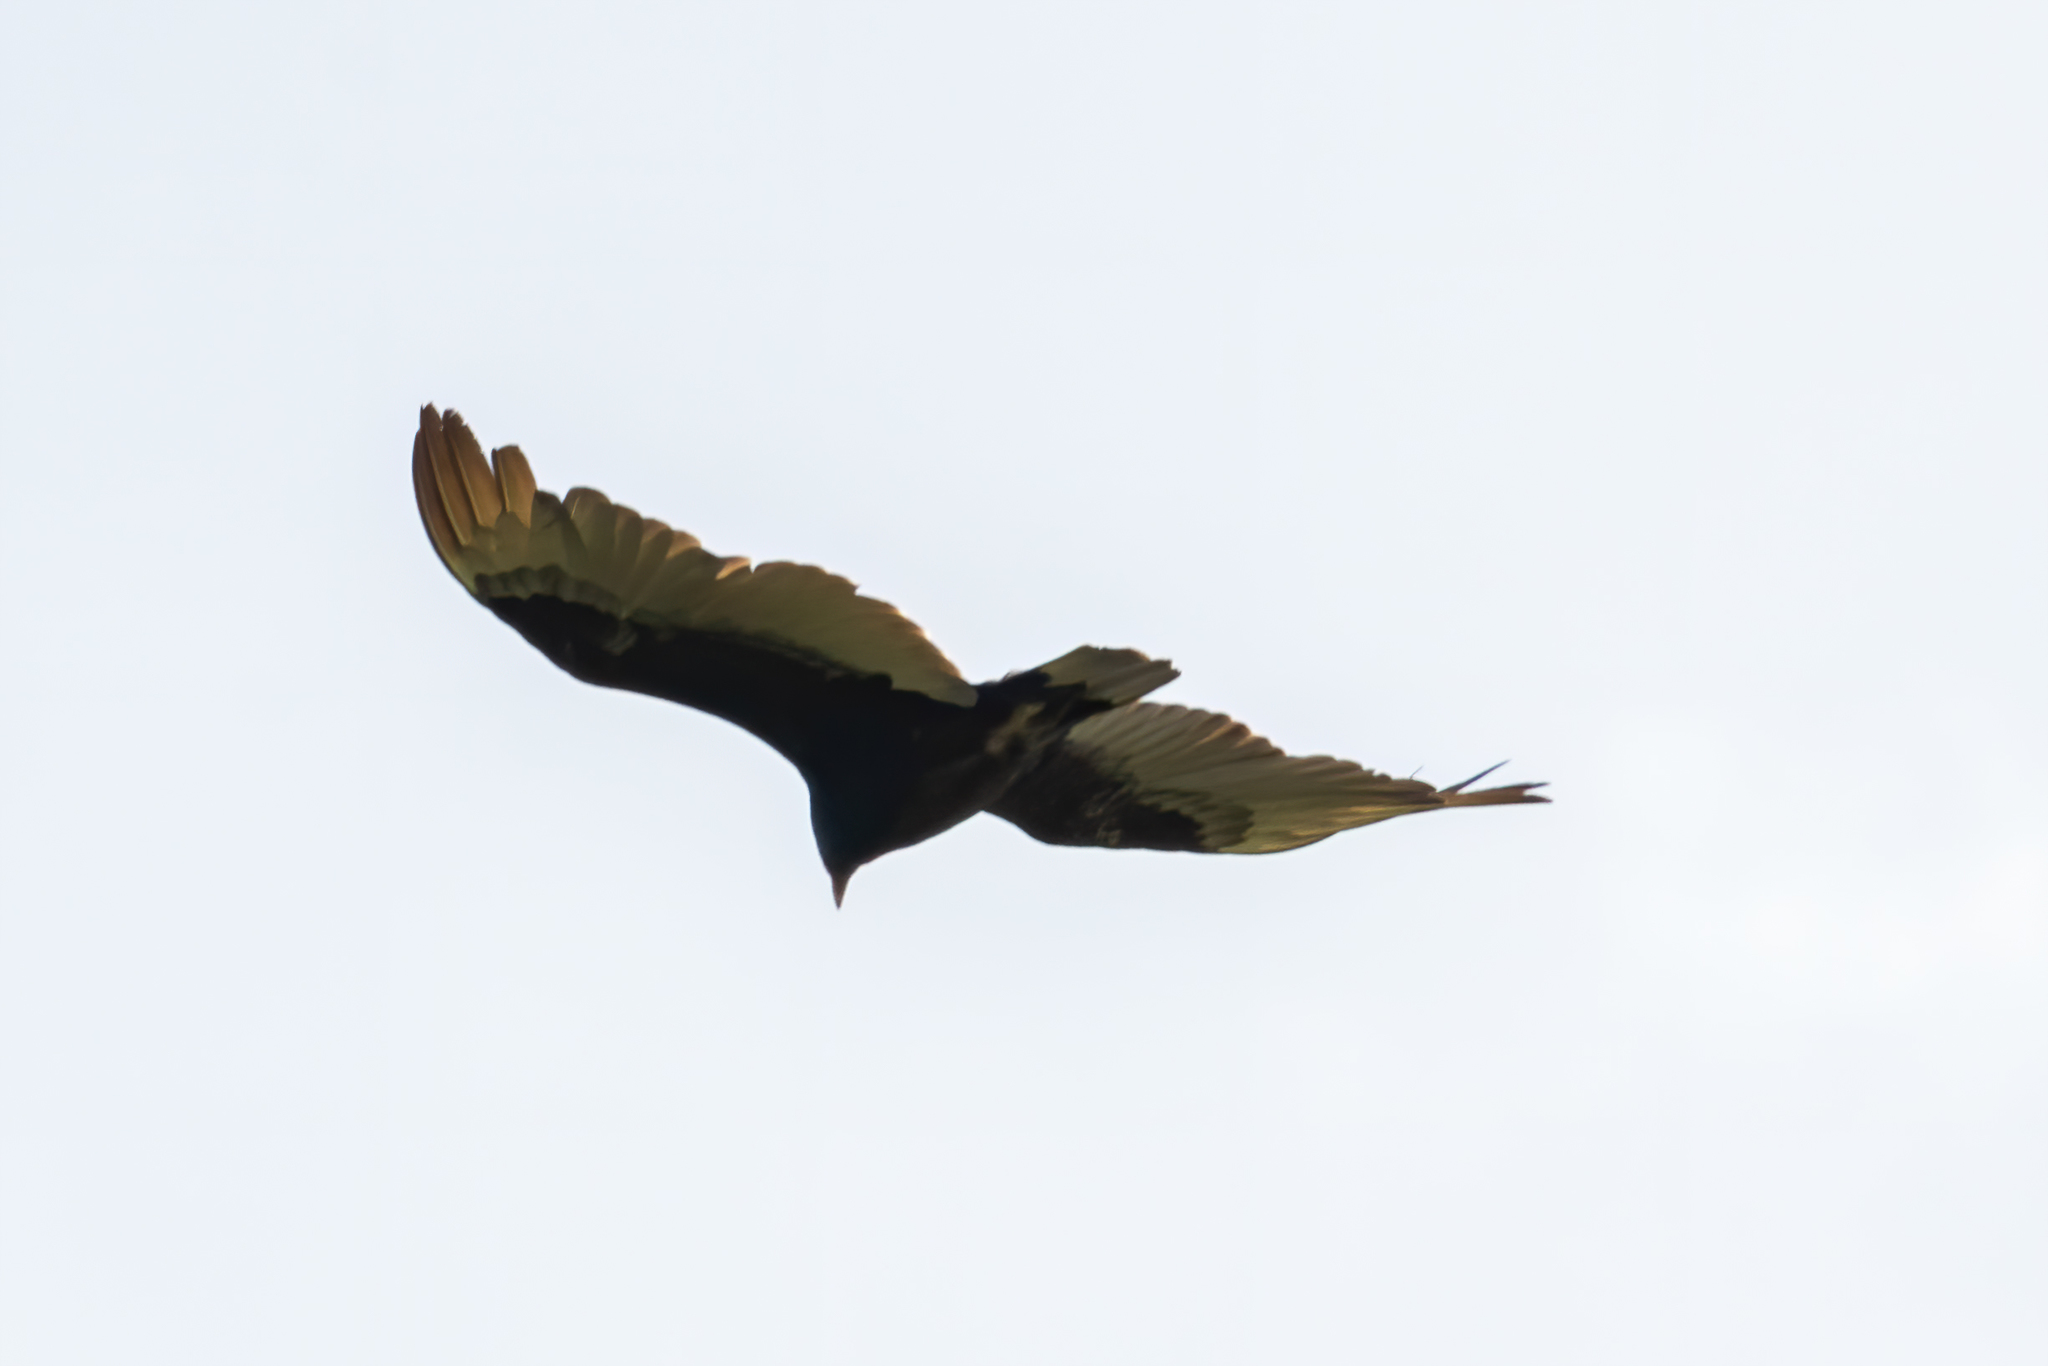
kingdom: Animalia
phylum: Chordata
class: Aves
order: Accipitriformes
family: Cathartidae
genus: Cathartes
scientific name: Cathartes aura
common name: Turkey vulture
